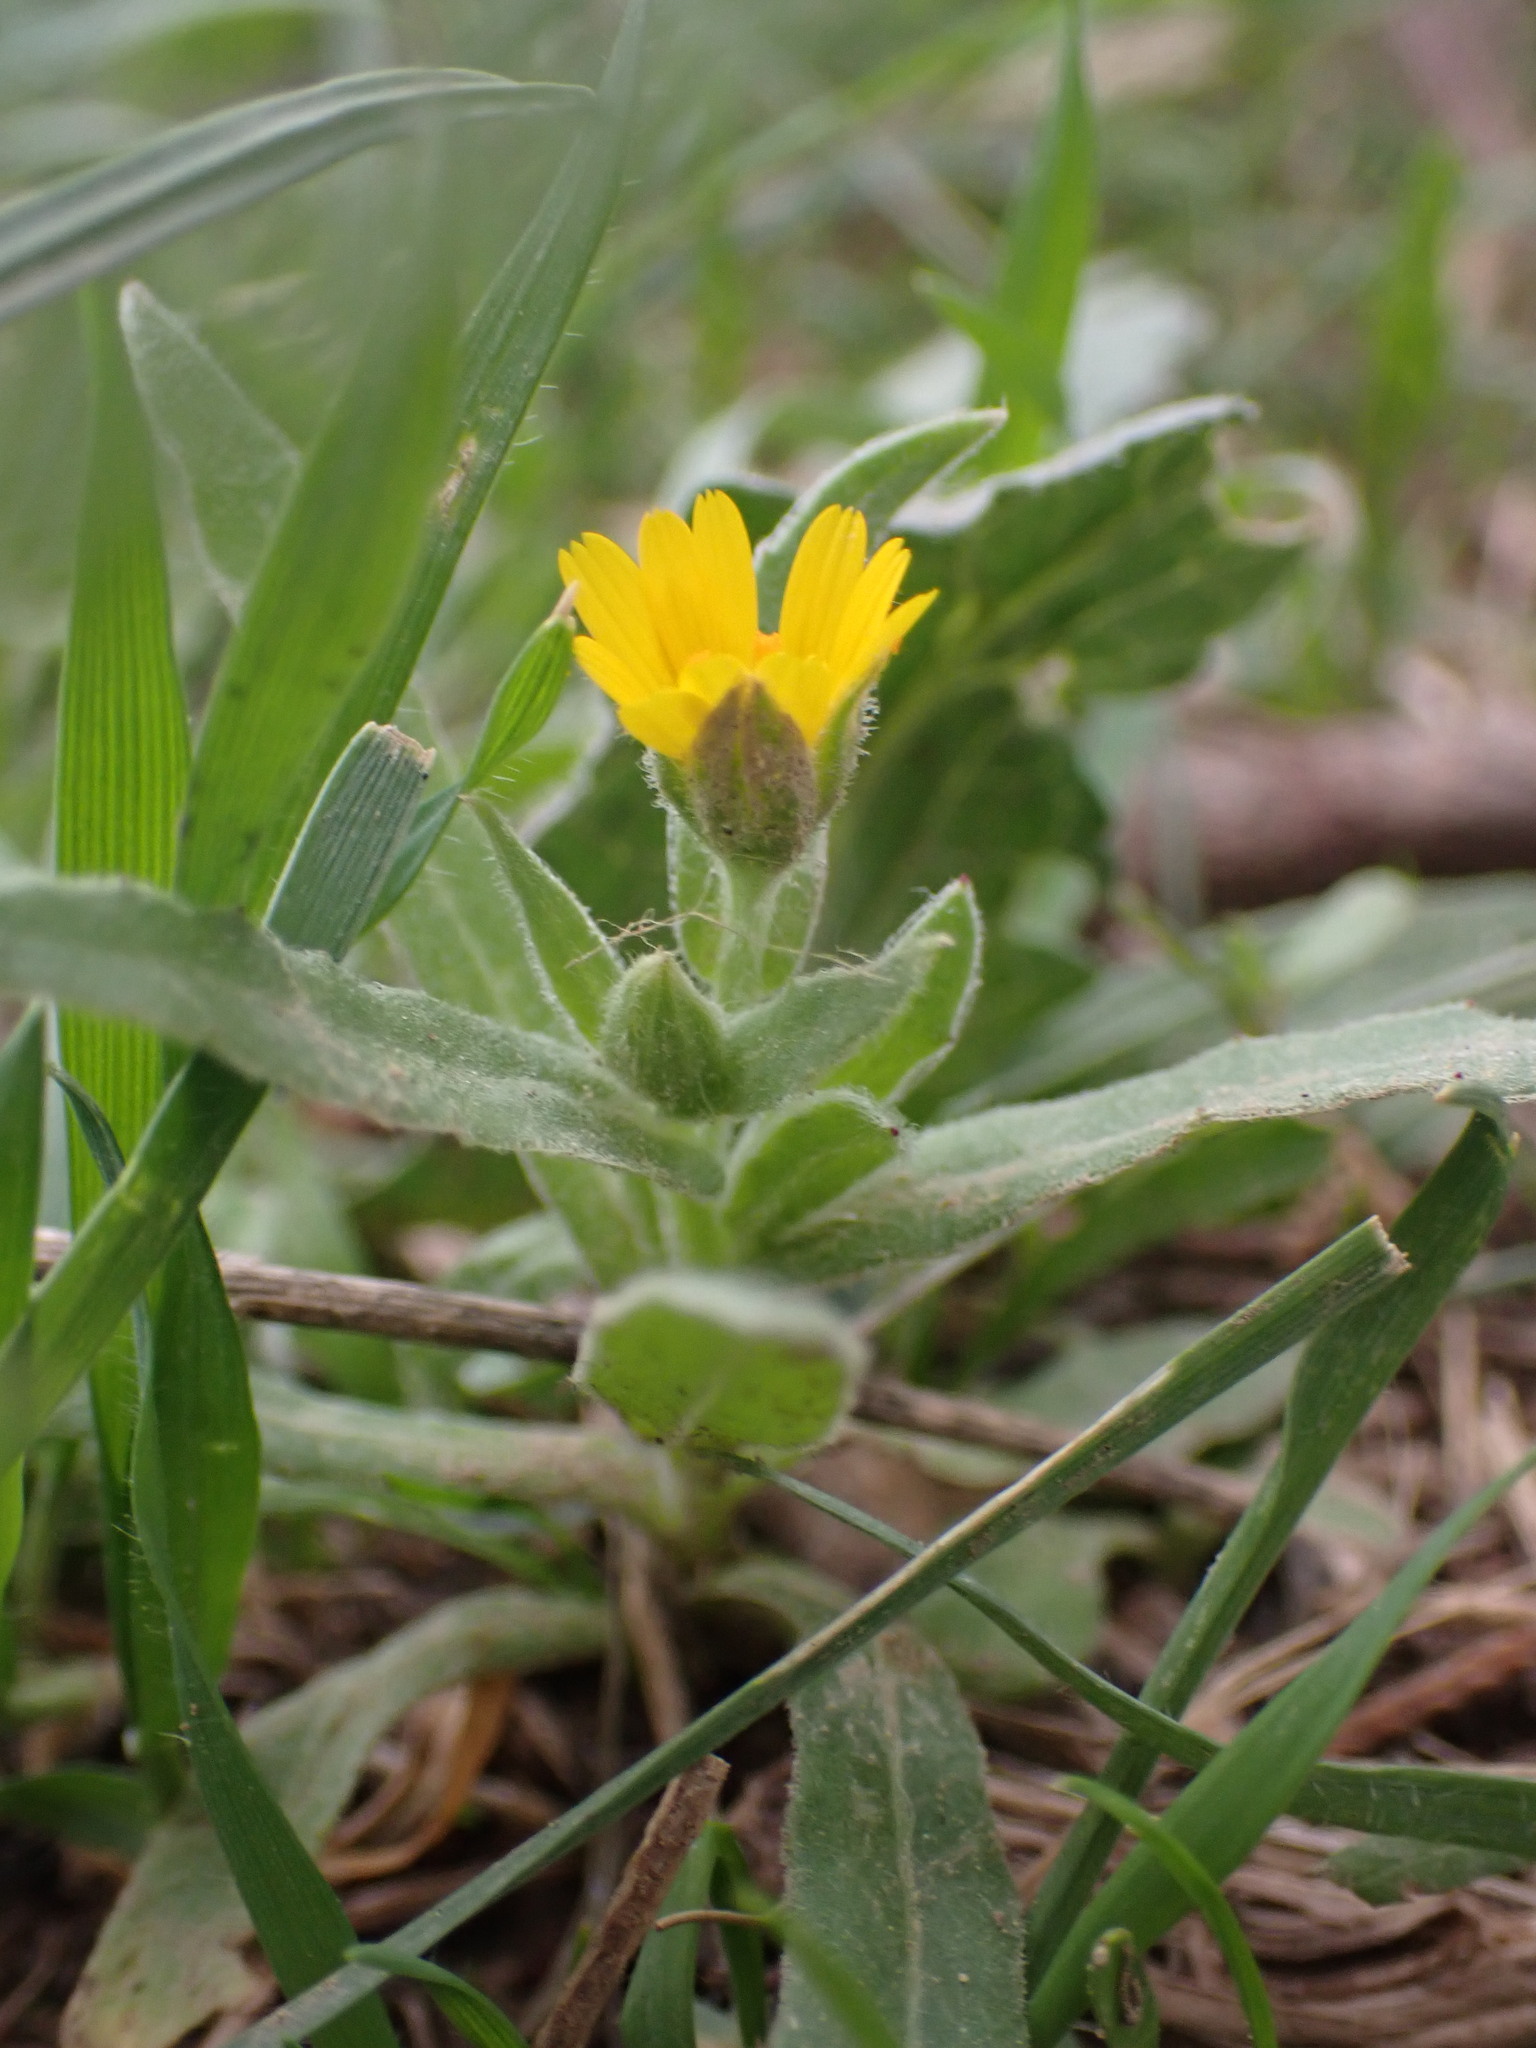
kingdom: Plantae
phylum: Tracheophyta
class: Magnoliopsida
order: Asterales
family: Asteraceae
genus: Calendula
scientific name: Calendula arvensis
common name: Field marigold
